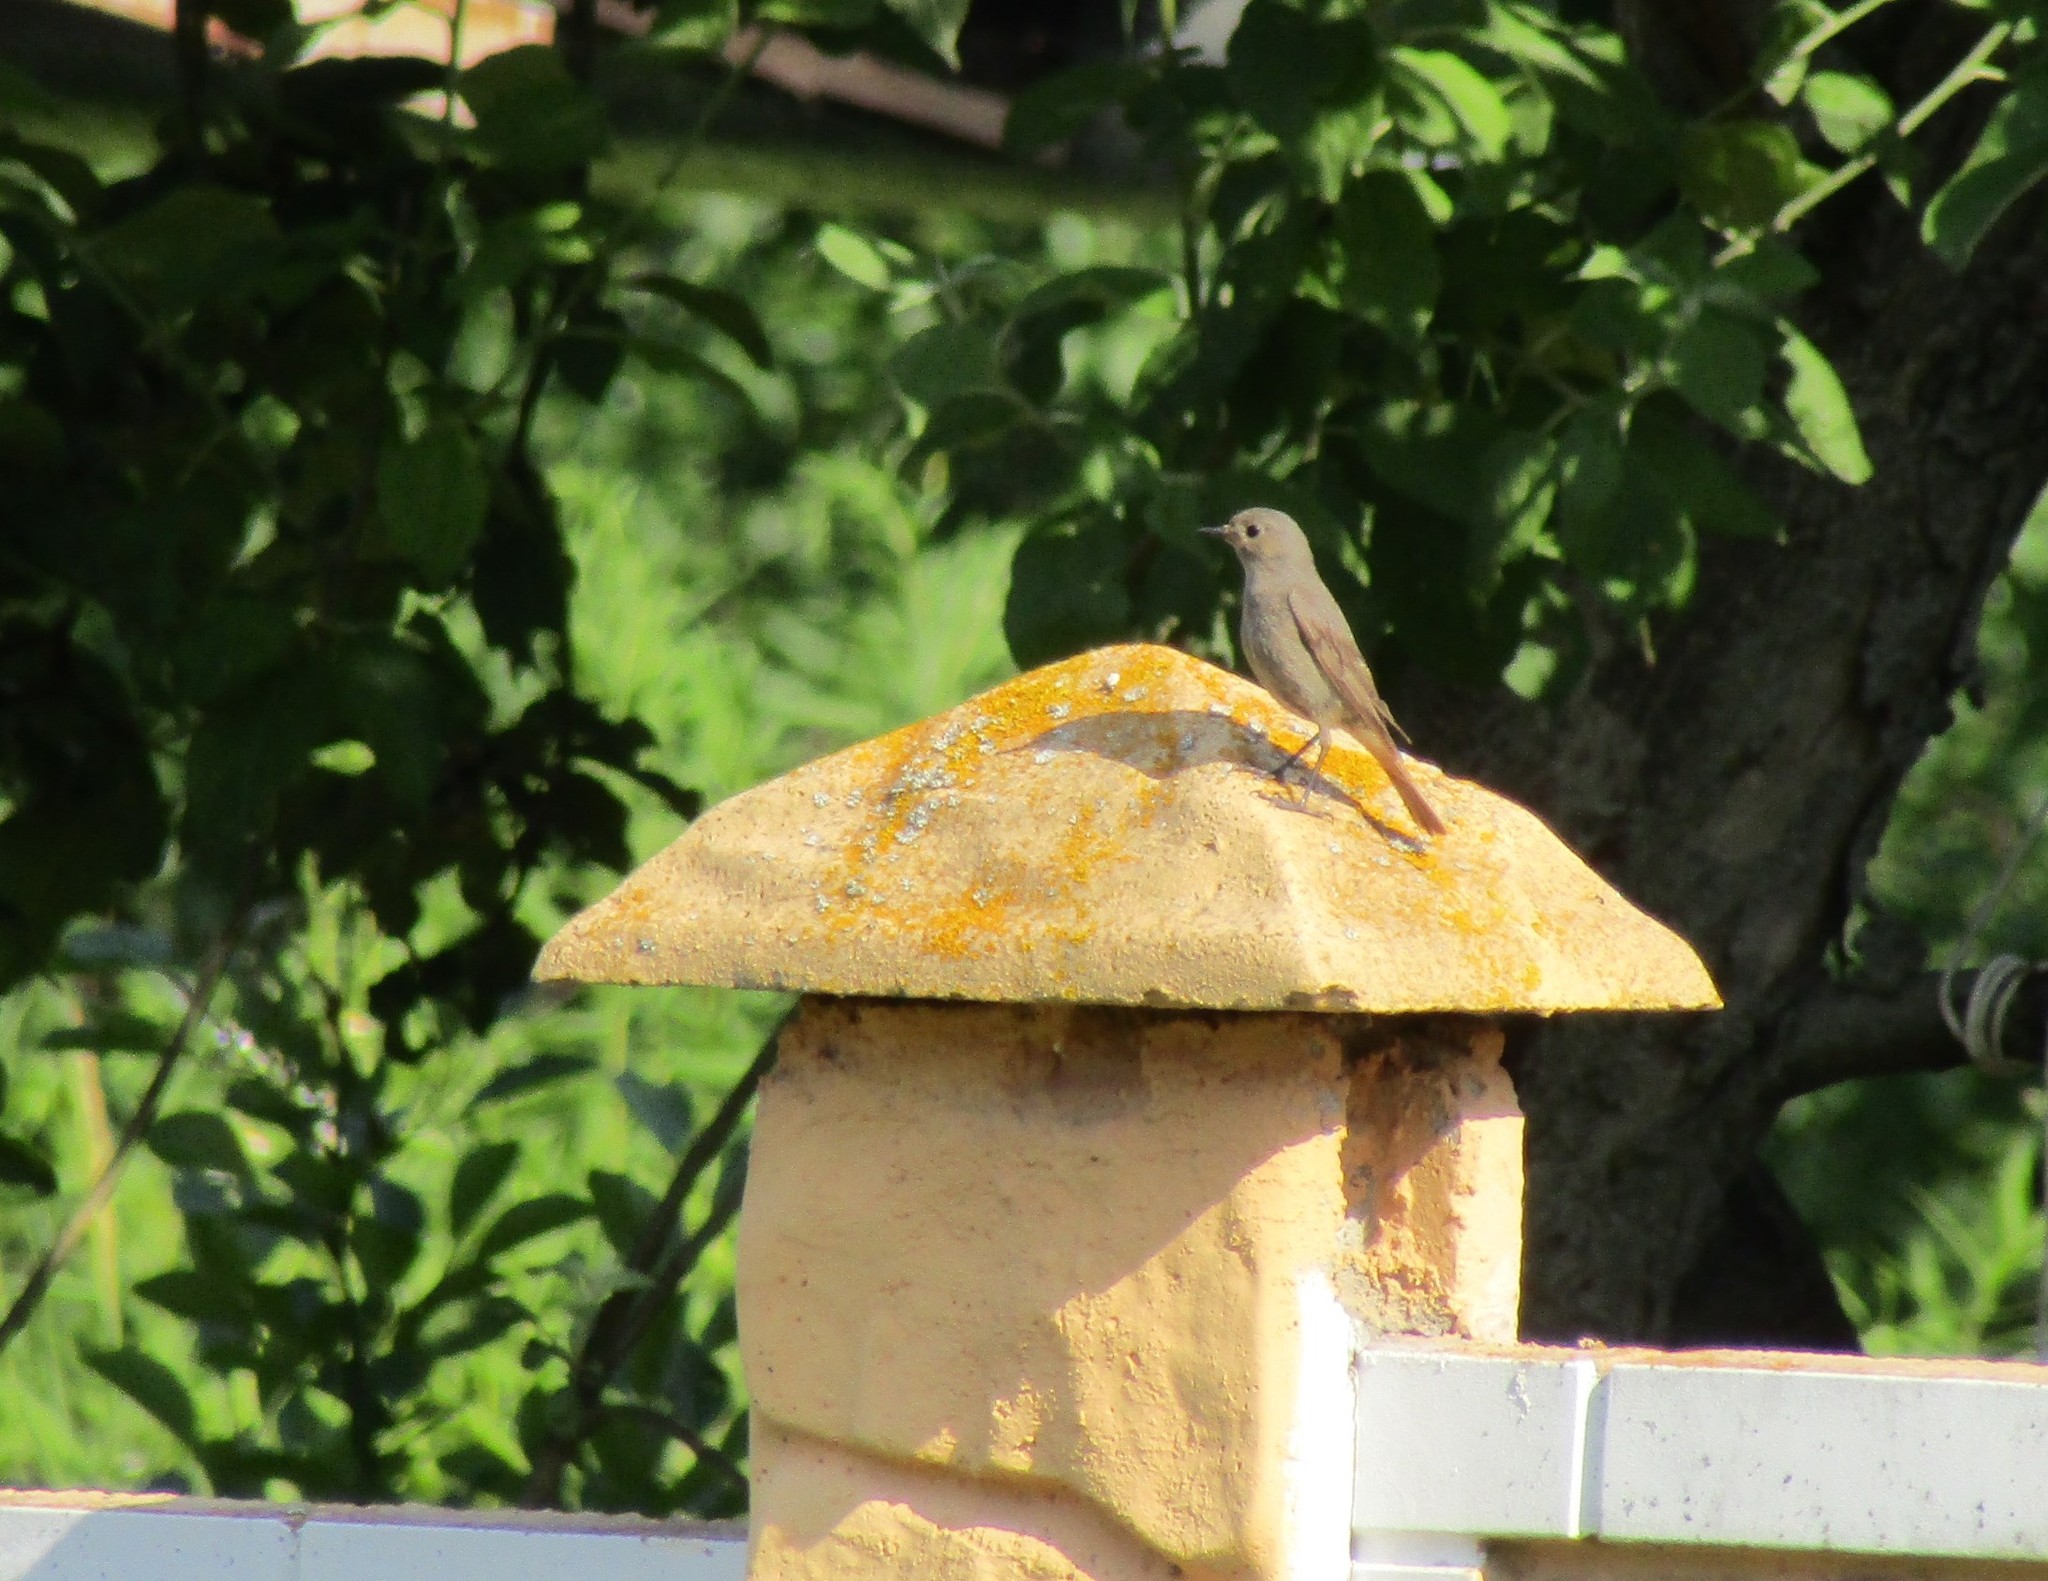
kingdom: Animalia
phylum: Chordata
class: Aves
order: Passeriformes
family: Muscicapidae
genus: Phoenicurus
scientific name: Phoenicurus ochruros
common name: Black redstart
